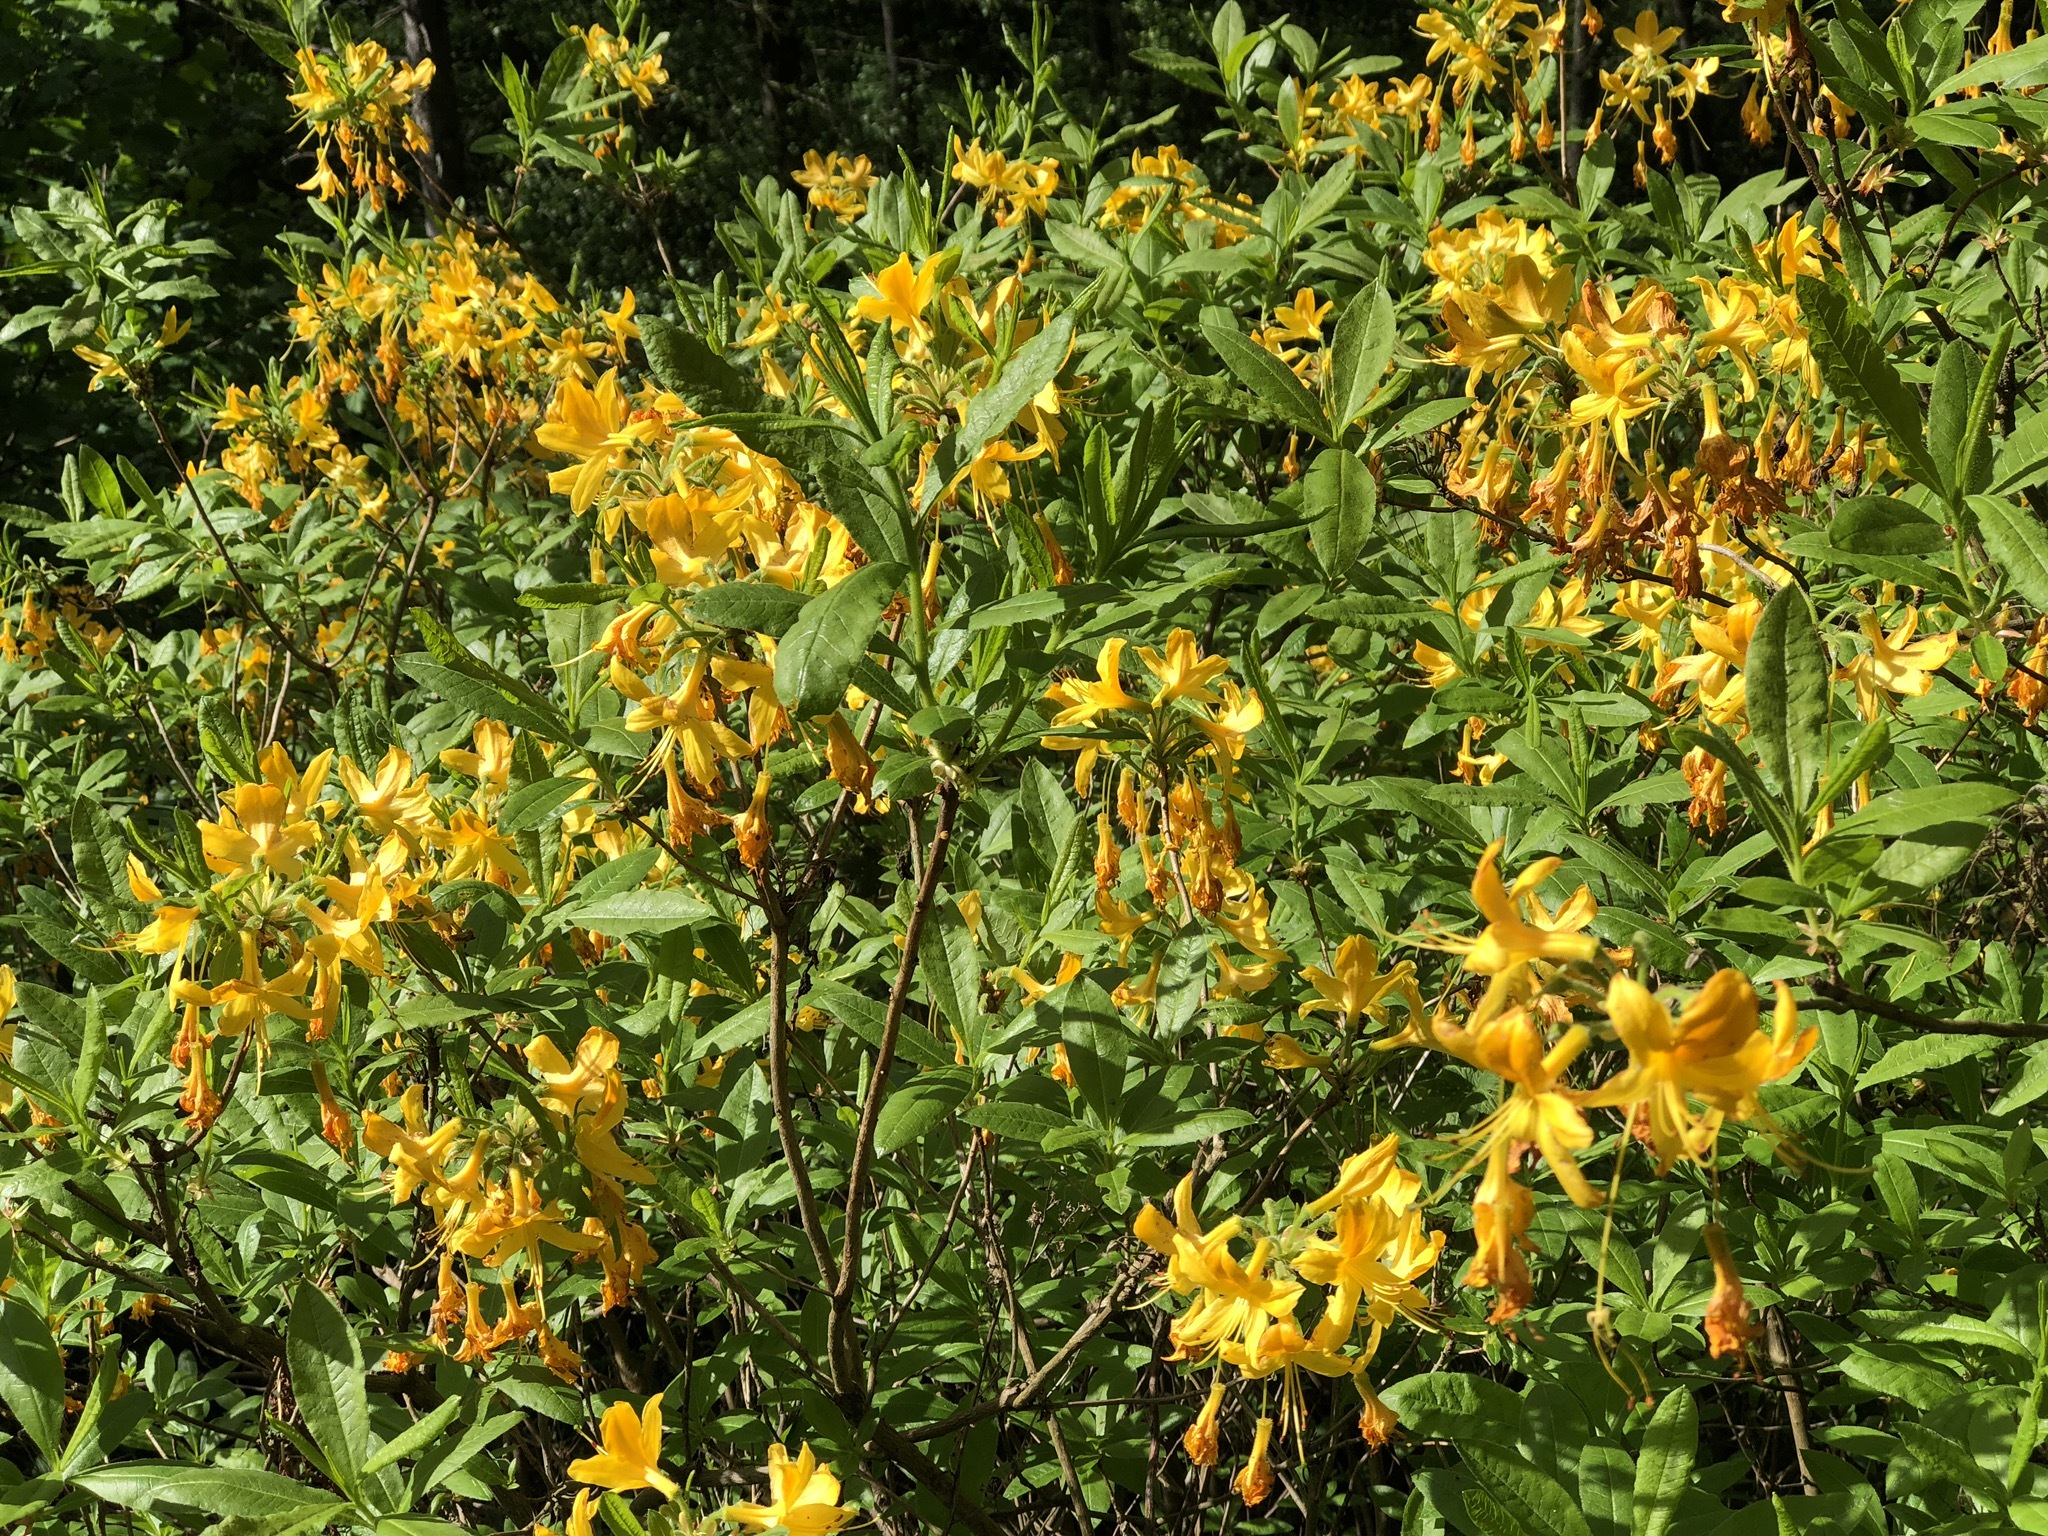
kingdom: Plantae
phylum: Tracheophyta
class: Magnoliopsida
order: Ericales
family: Ericaceae
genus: Rhododendron
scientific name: Rhododendron luteum
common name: Yellow azalea
